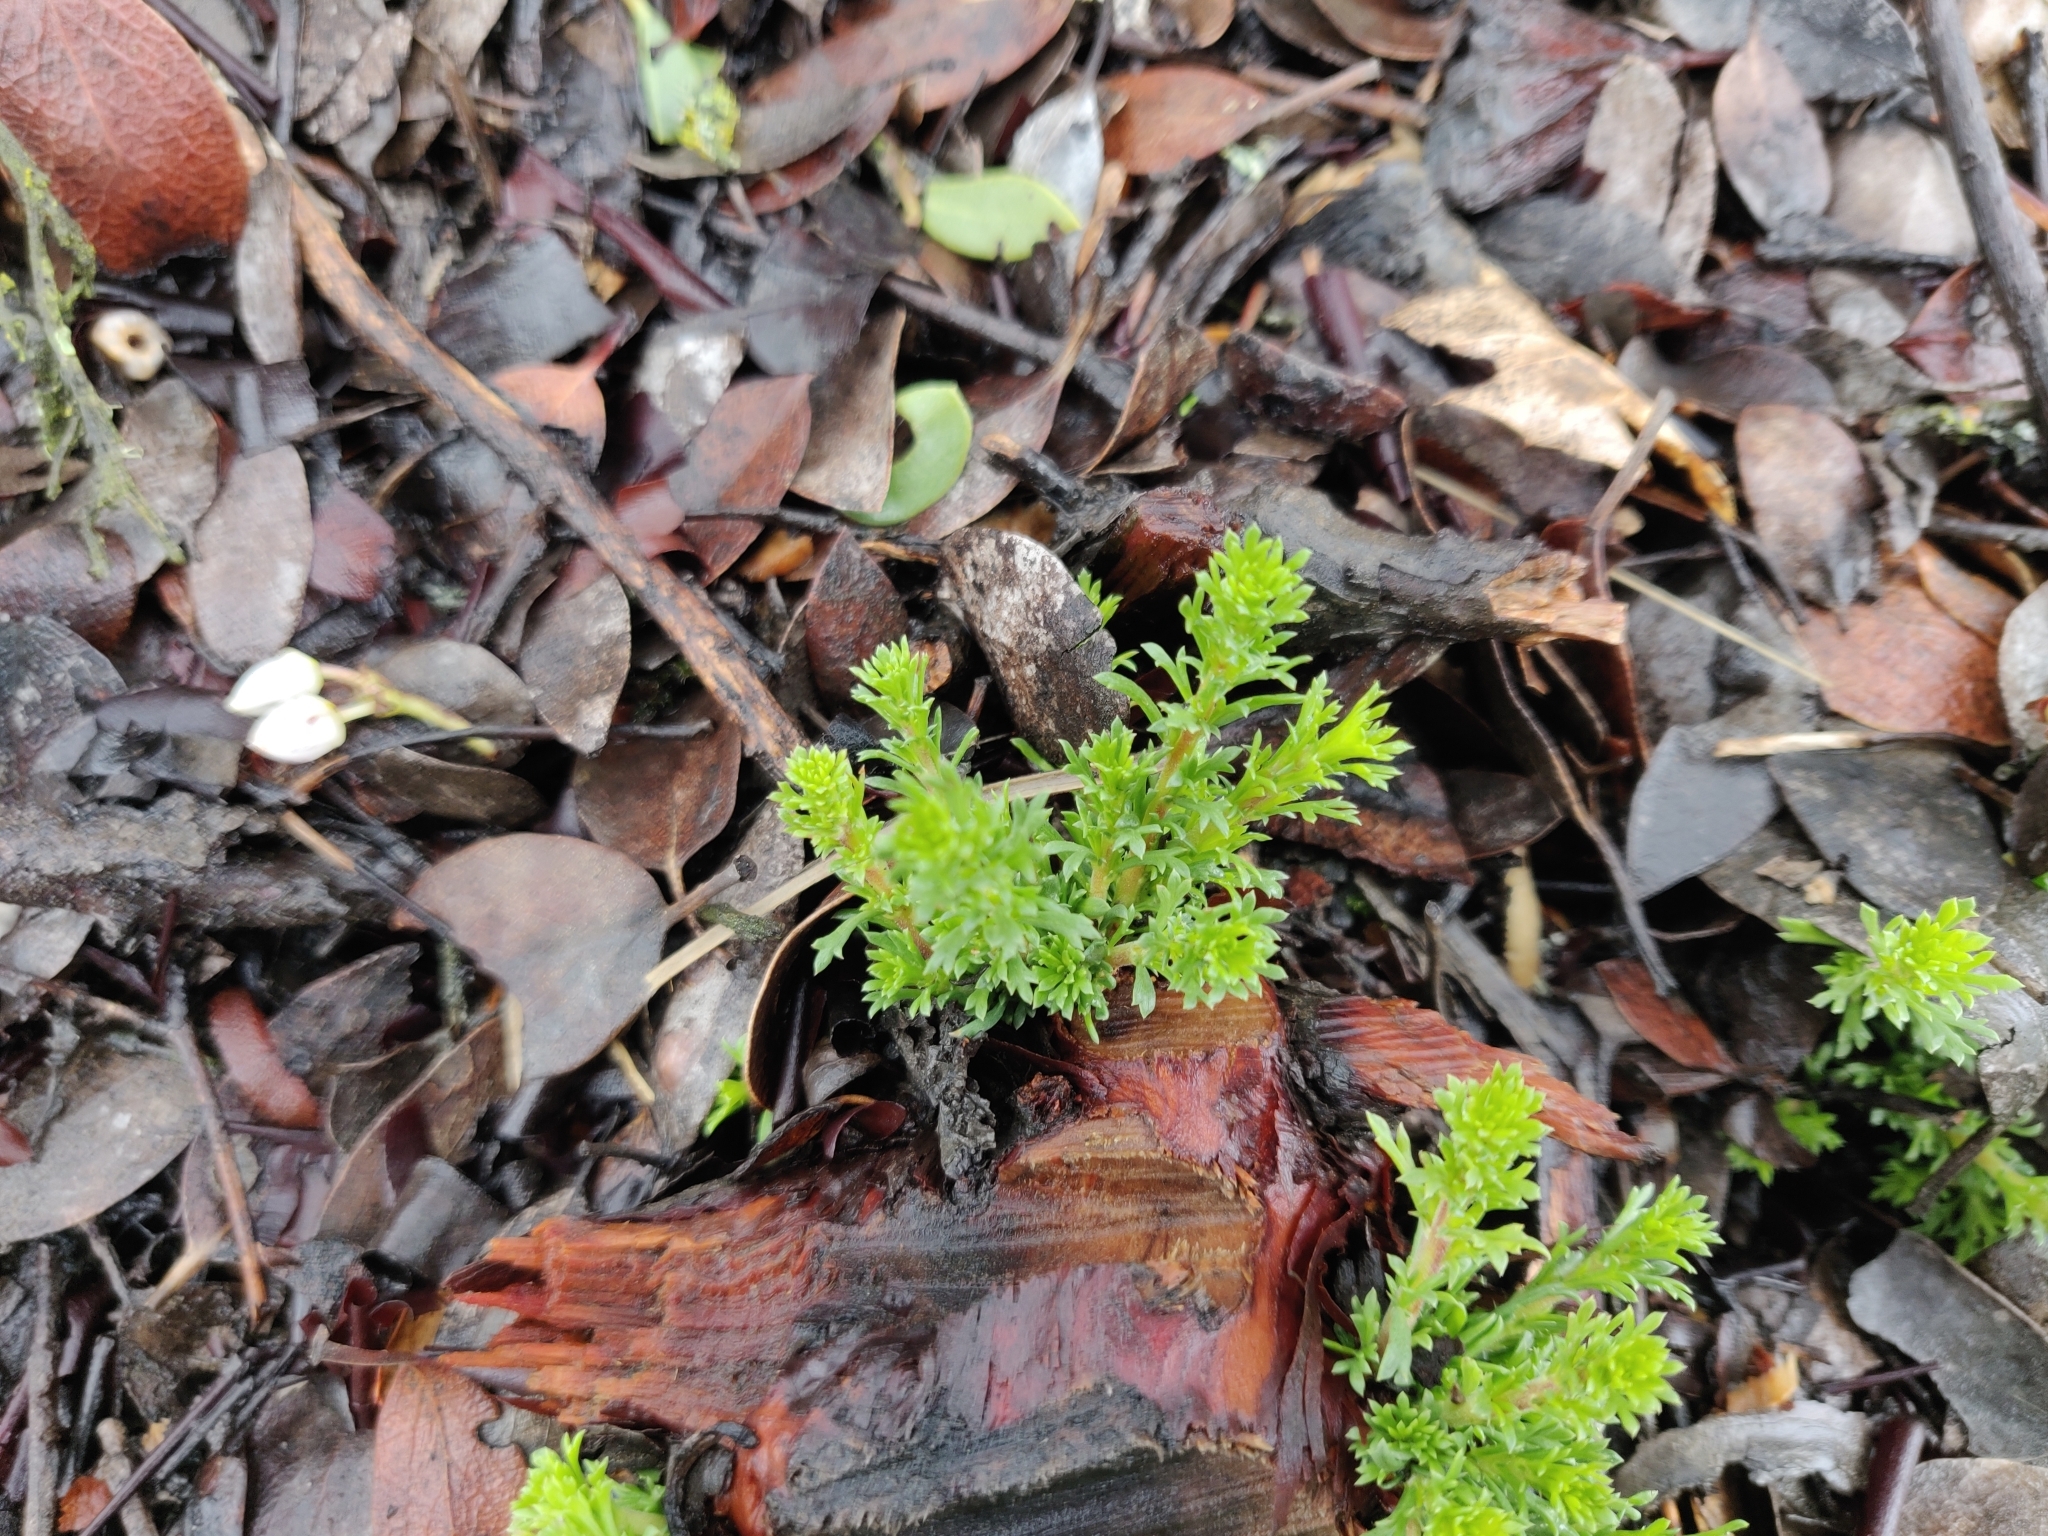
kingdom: Plantae
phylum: Tracheophyta
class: Magnoliopsida
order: Rosales
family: Rosaceae
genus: Adenostoma
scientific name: Adenostoma fasciculatum
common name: Chamise
